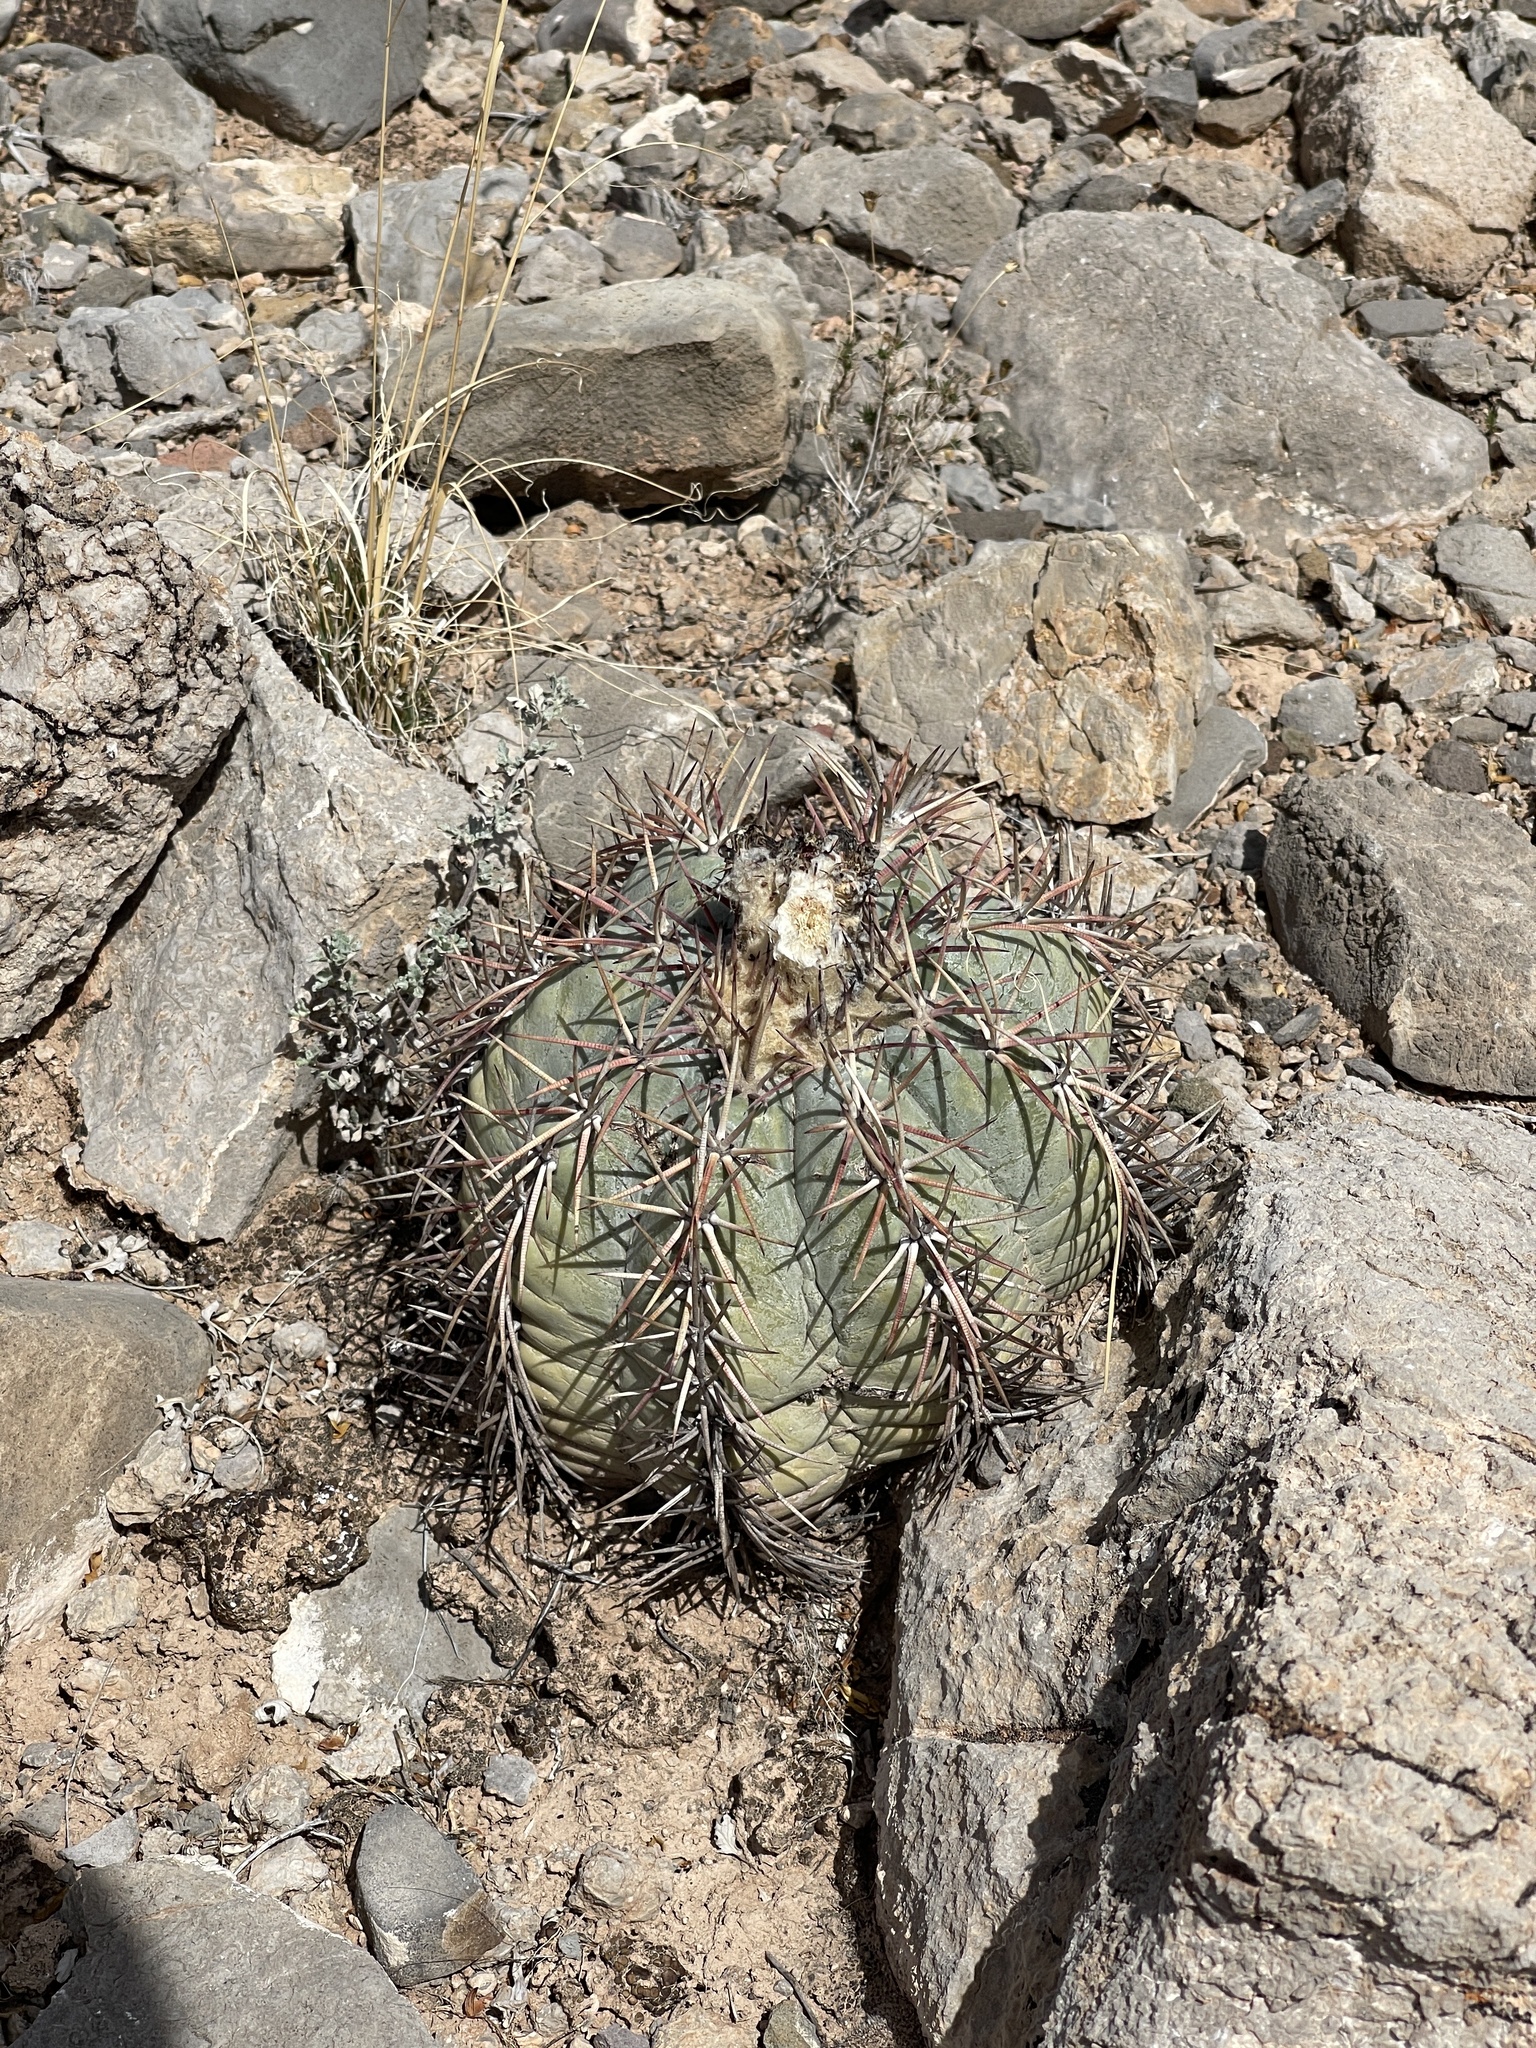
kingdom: Plantae
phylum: Tracheophyta
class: Magnoliopsida
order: Caryophyllales
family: Cactaceae
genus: Echinocactus
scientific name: Echinocactus horizonthalonius
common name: Devilshead
